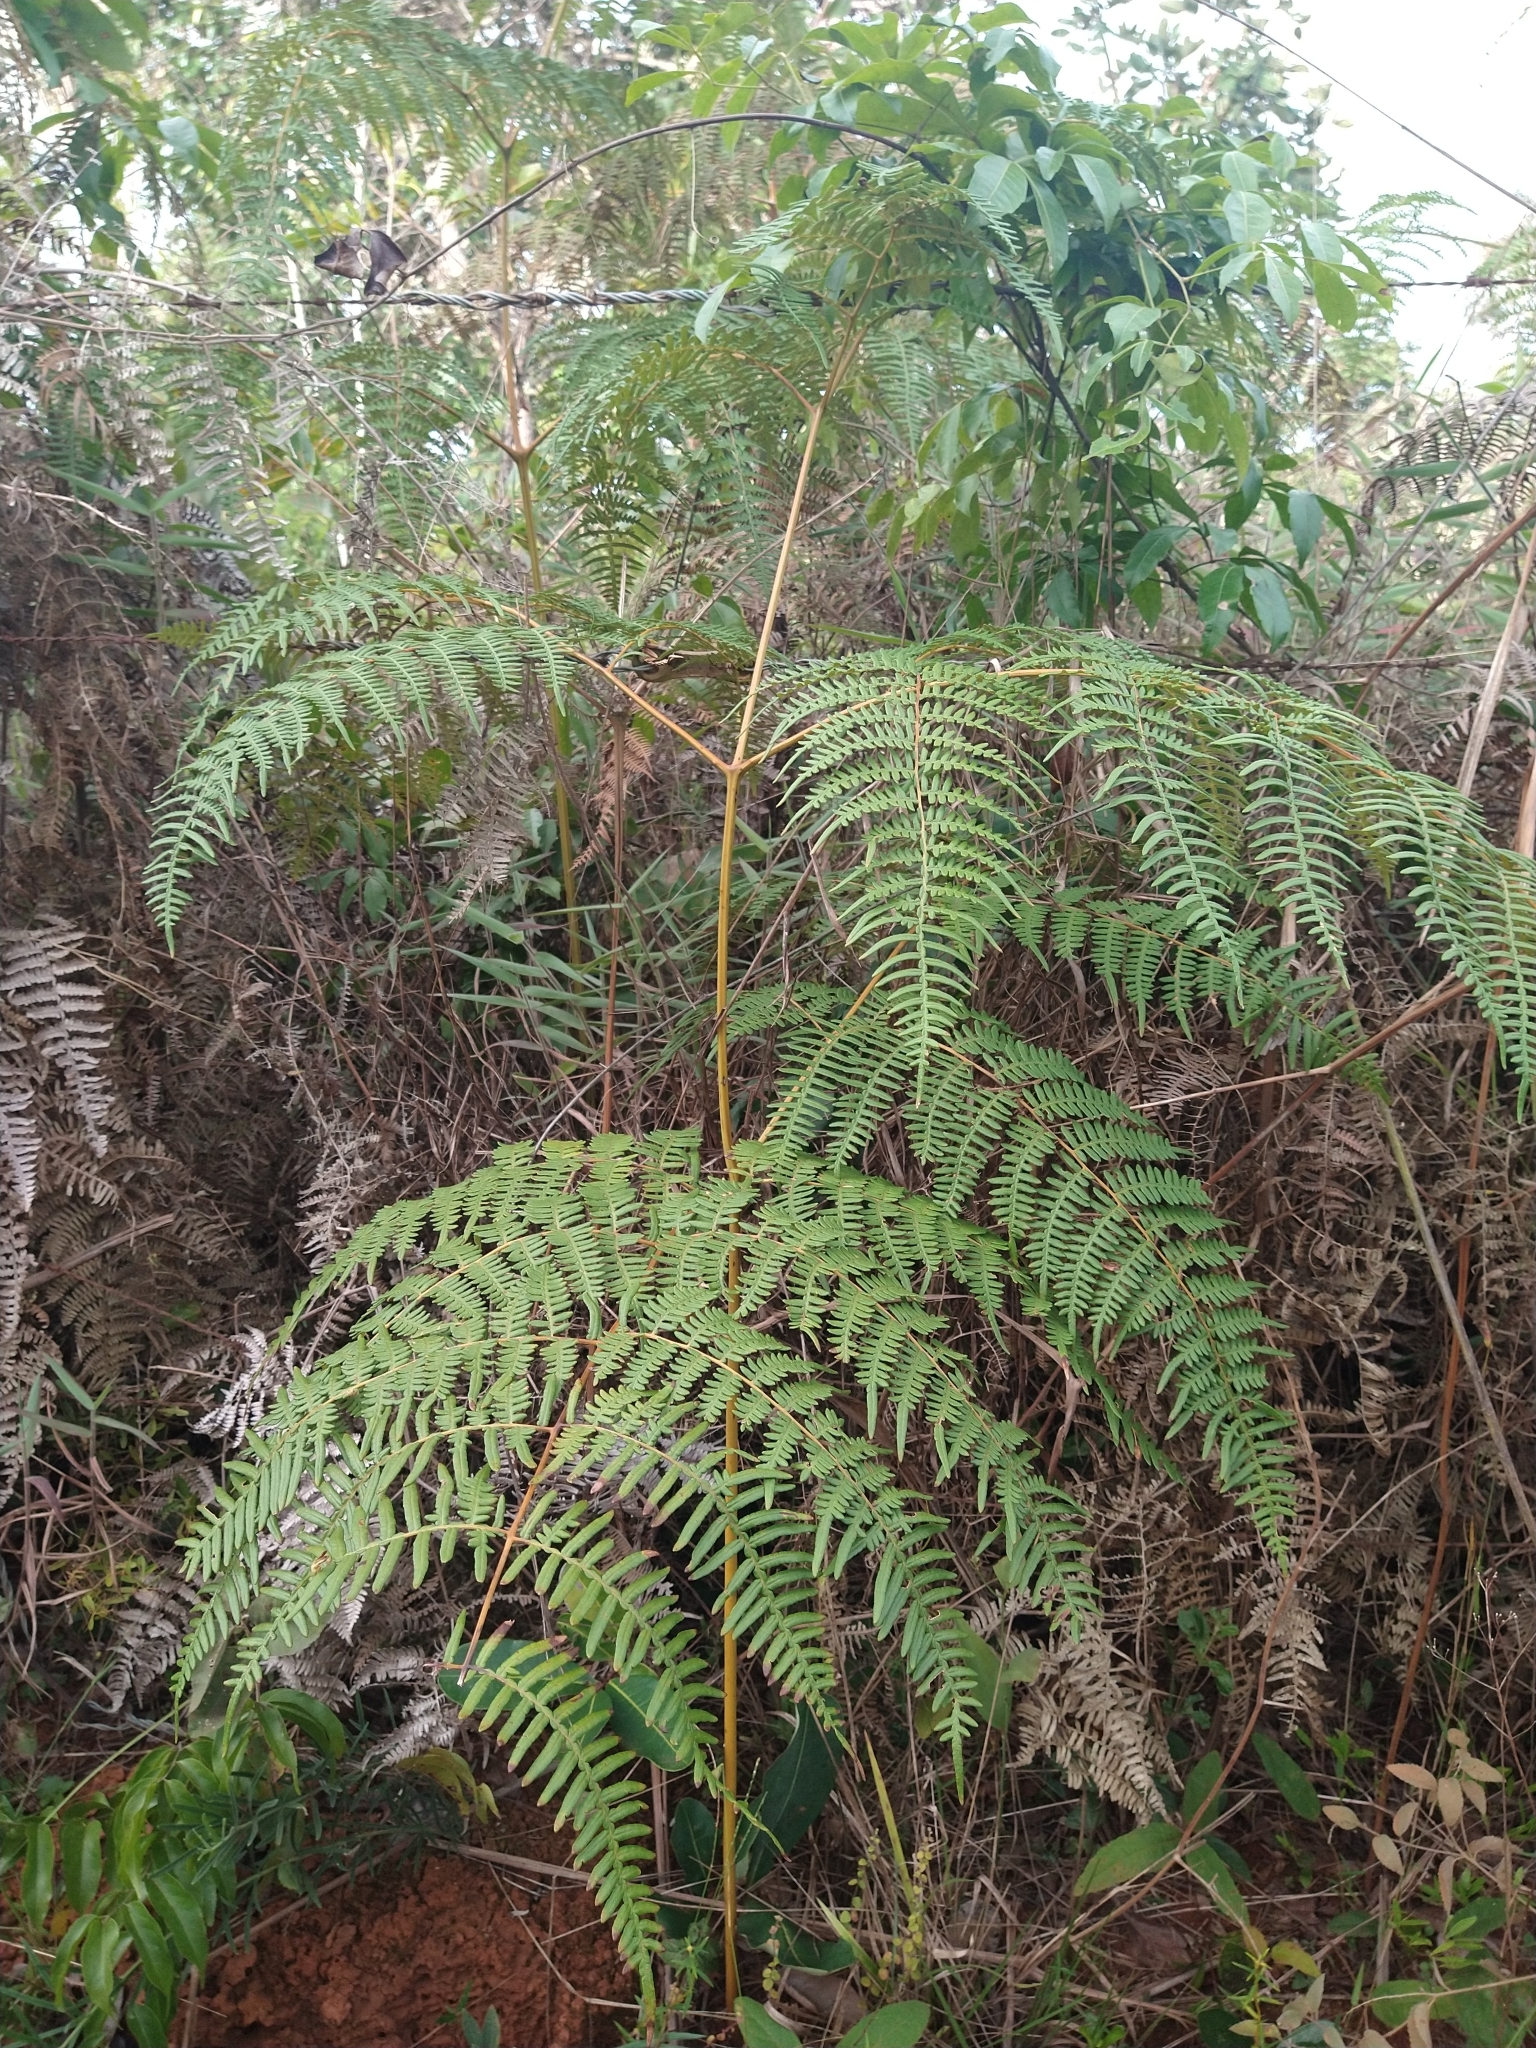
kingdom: Plantae
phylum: Tracheophyta
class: Polypodiopsida
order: Polypodiales
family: Dennstaedtiaceae
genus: Pteridium
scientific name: Pteridium esculentum
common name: Bracken fern
